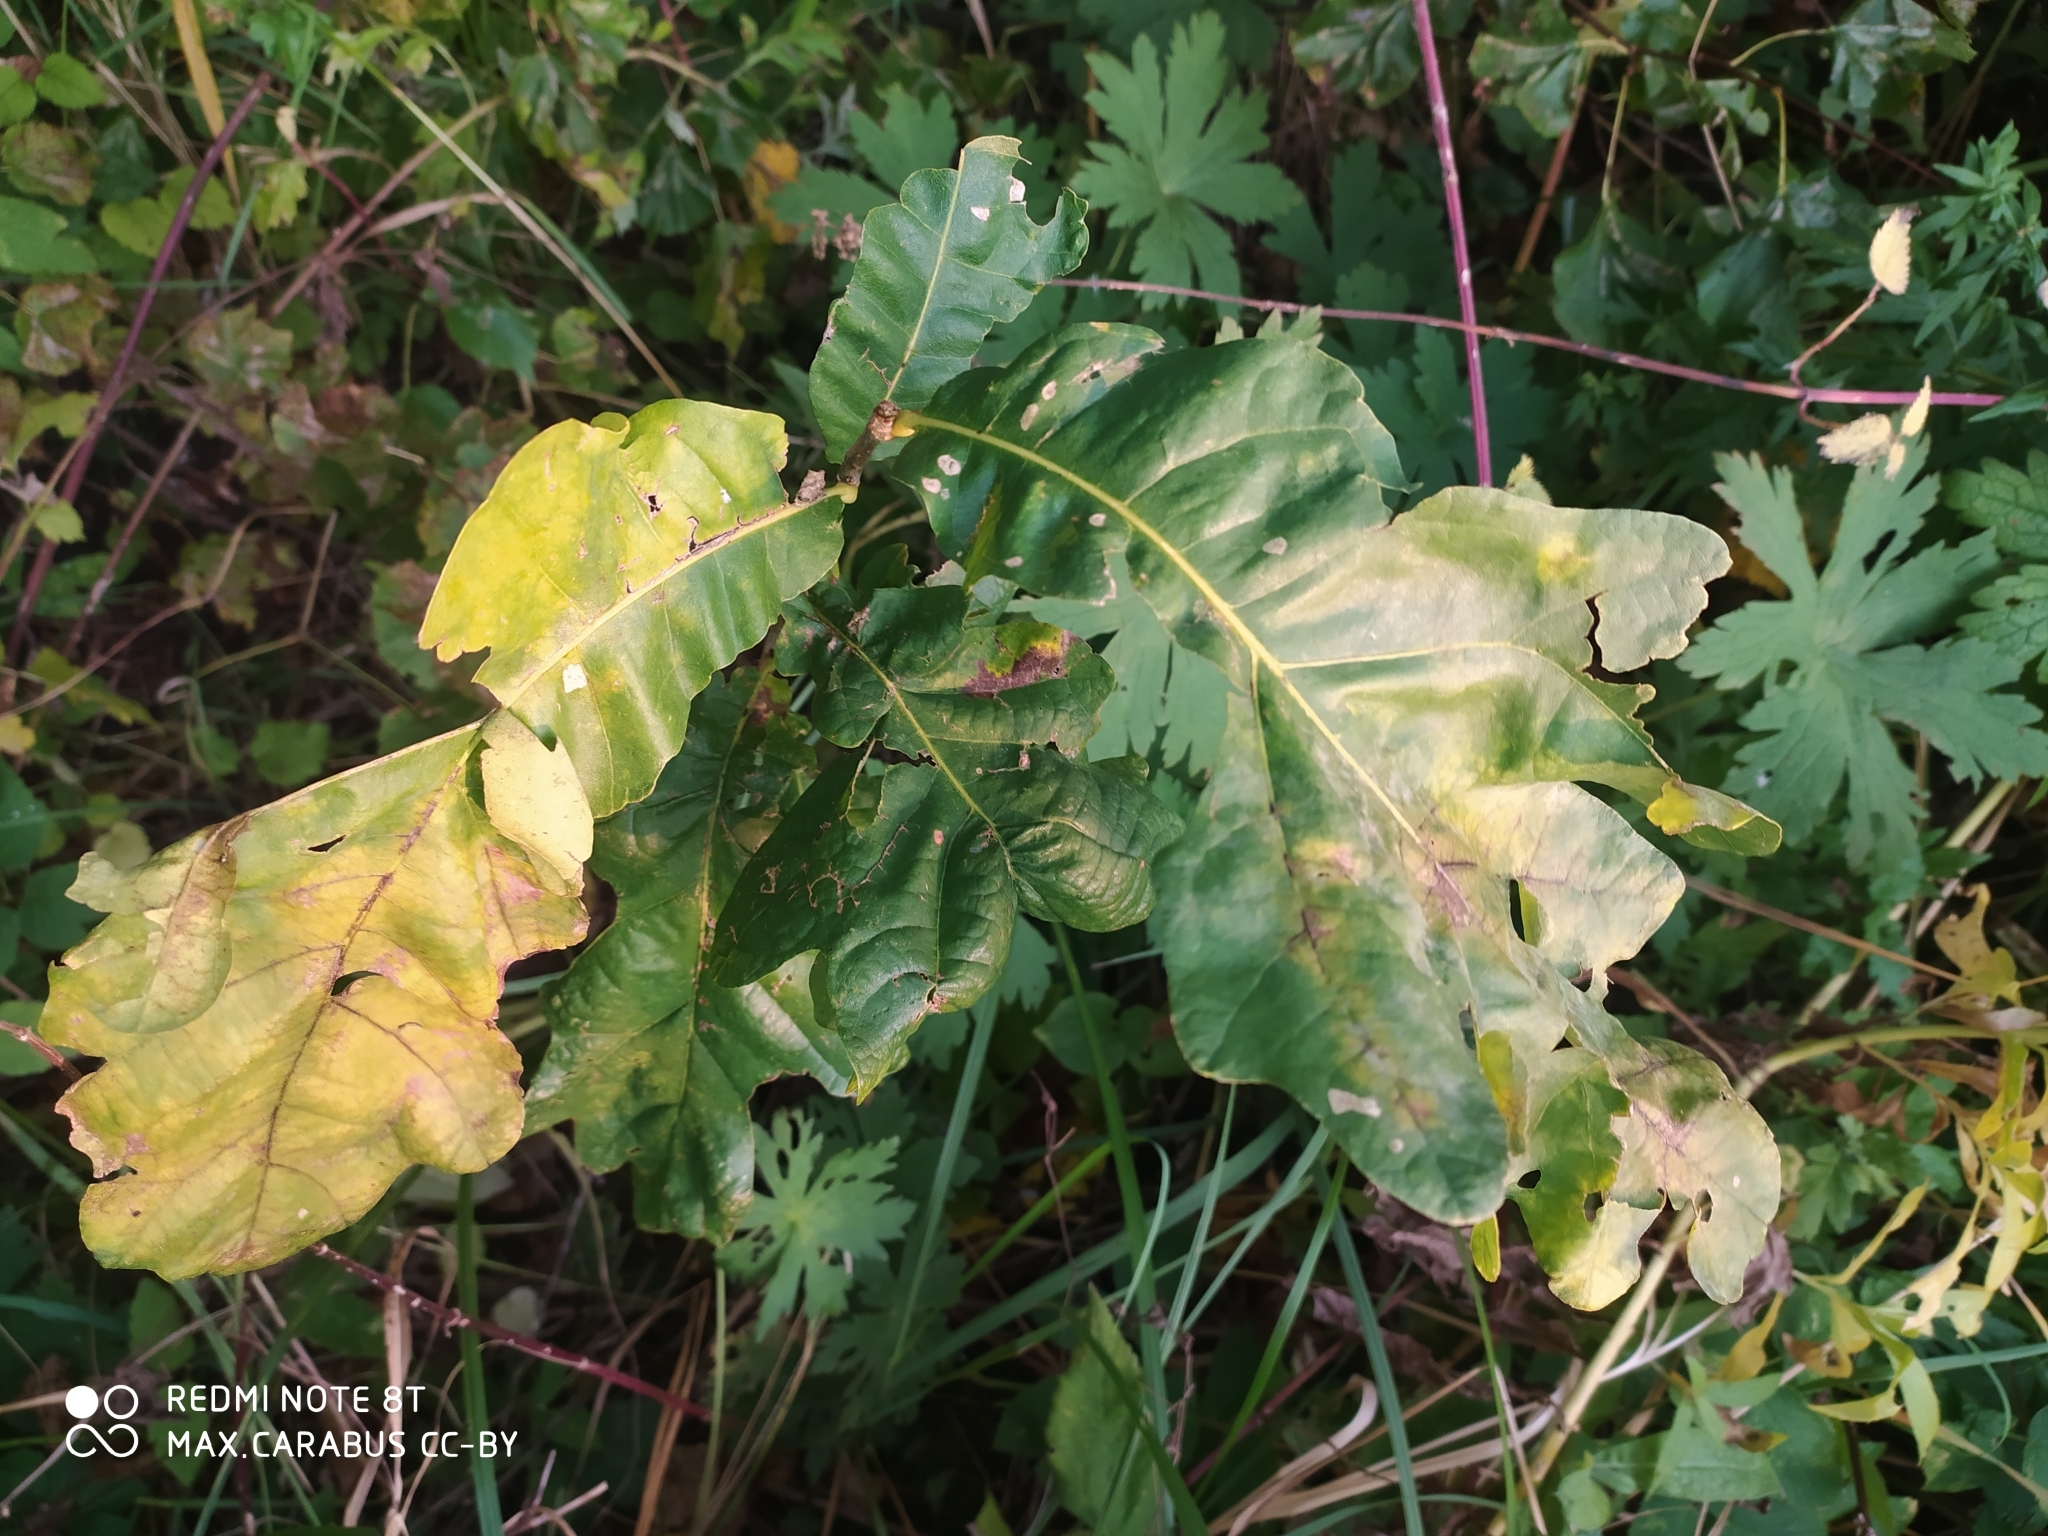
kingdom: Plantae
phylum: Tracheophyta
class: Magnoliopsida
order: Fagales
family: Fagaceae
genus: Quercus
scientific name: Quercus robur
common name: Pedunculate oak
